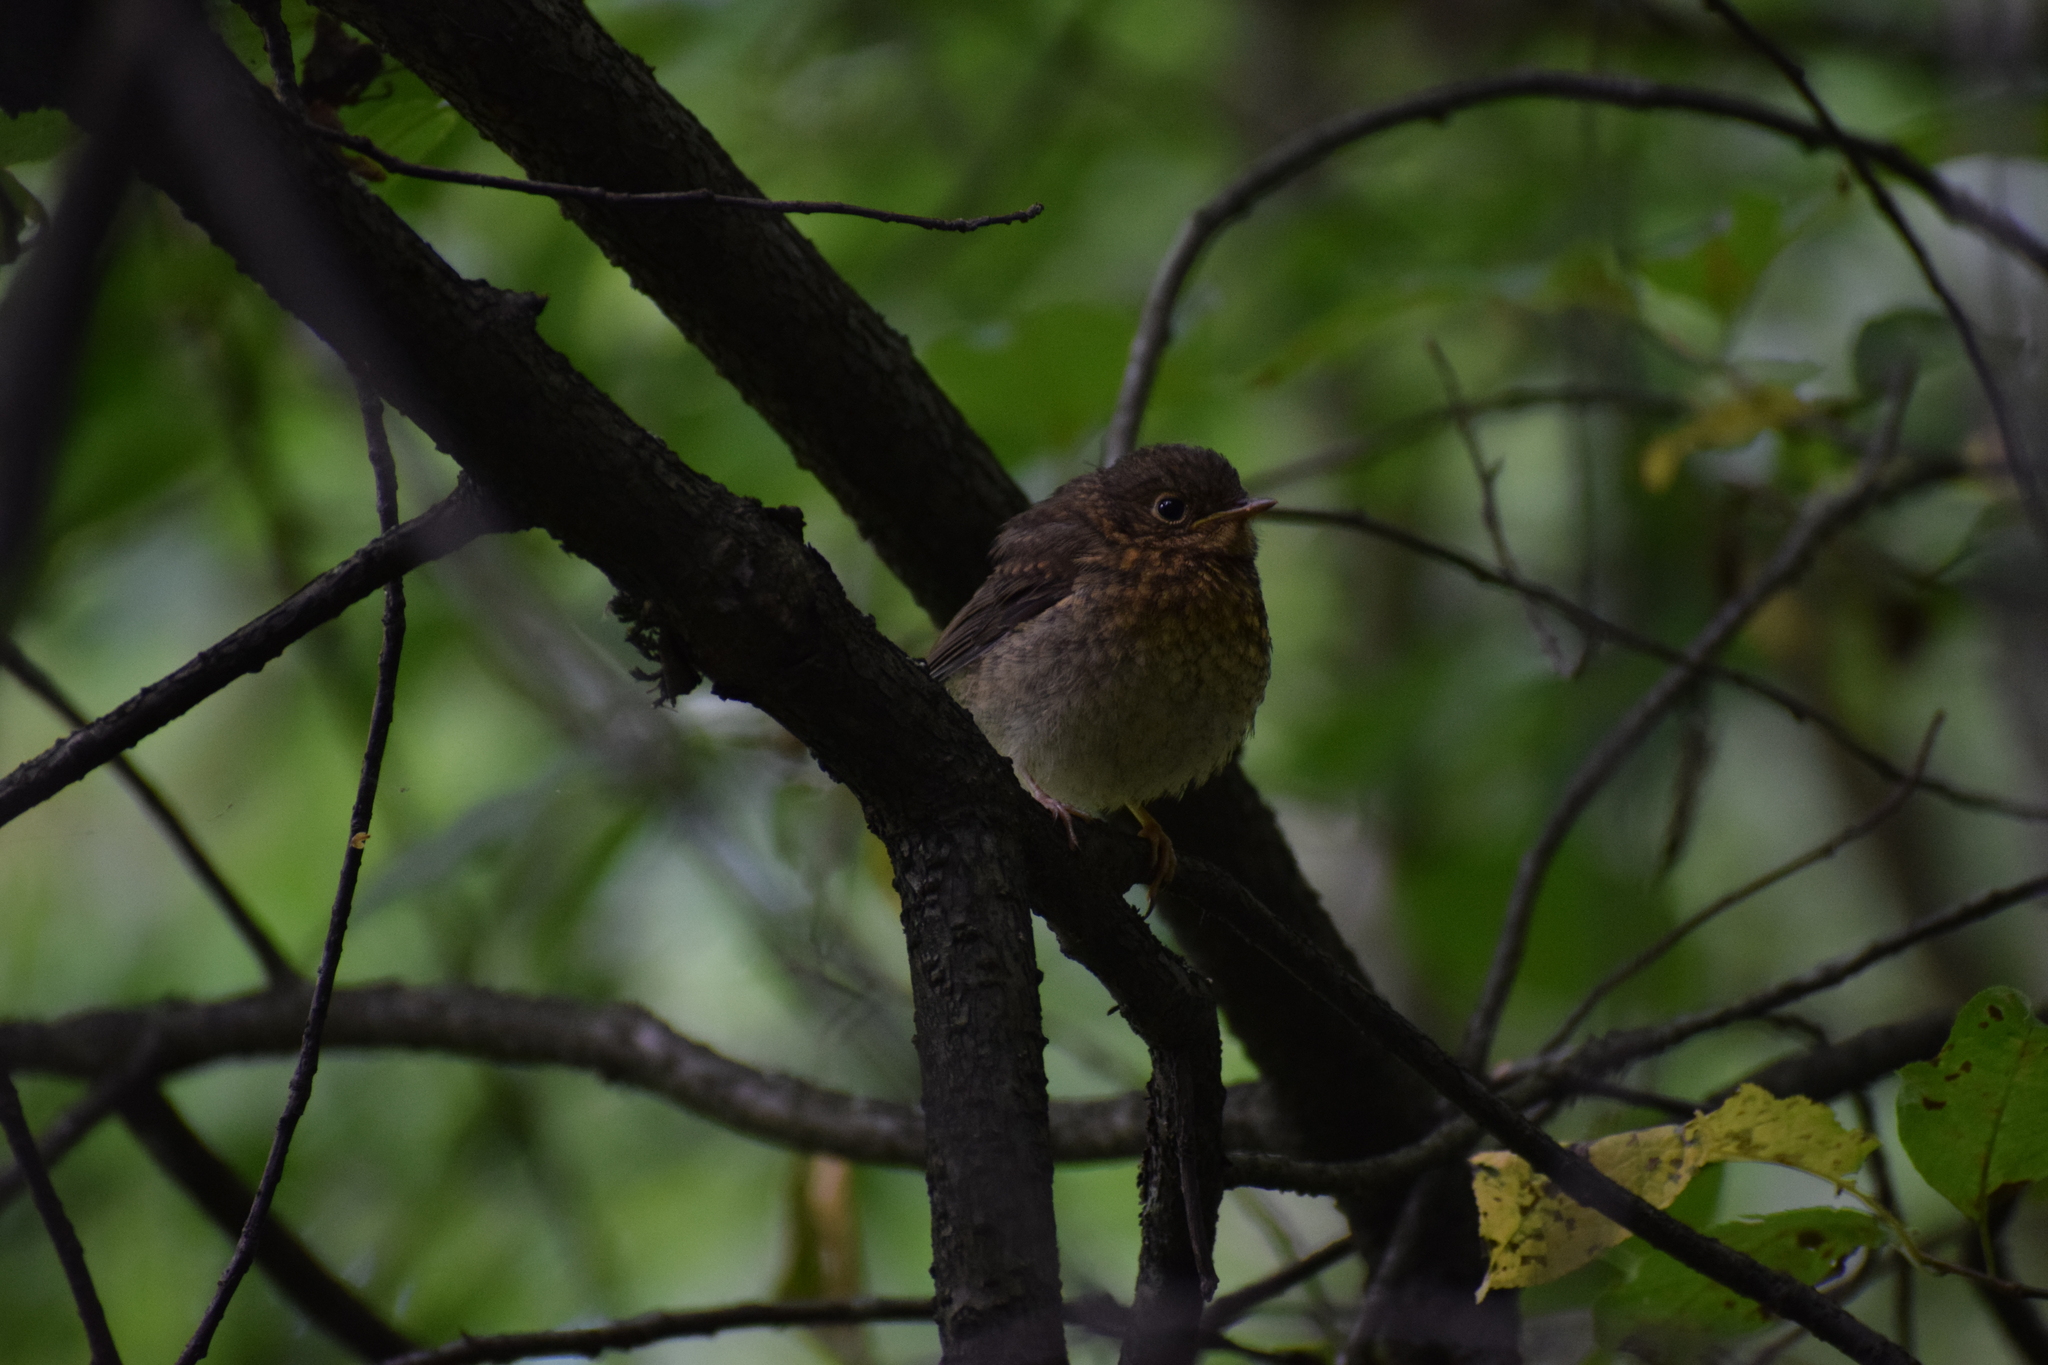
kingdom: Animalia
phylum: Chordata
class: Aves
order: Passeriformes
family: Muscicapidae
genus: Erithacus
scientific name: Erithacus rubecula
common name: European robin
